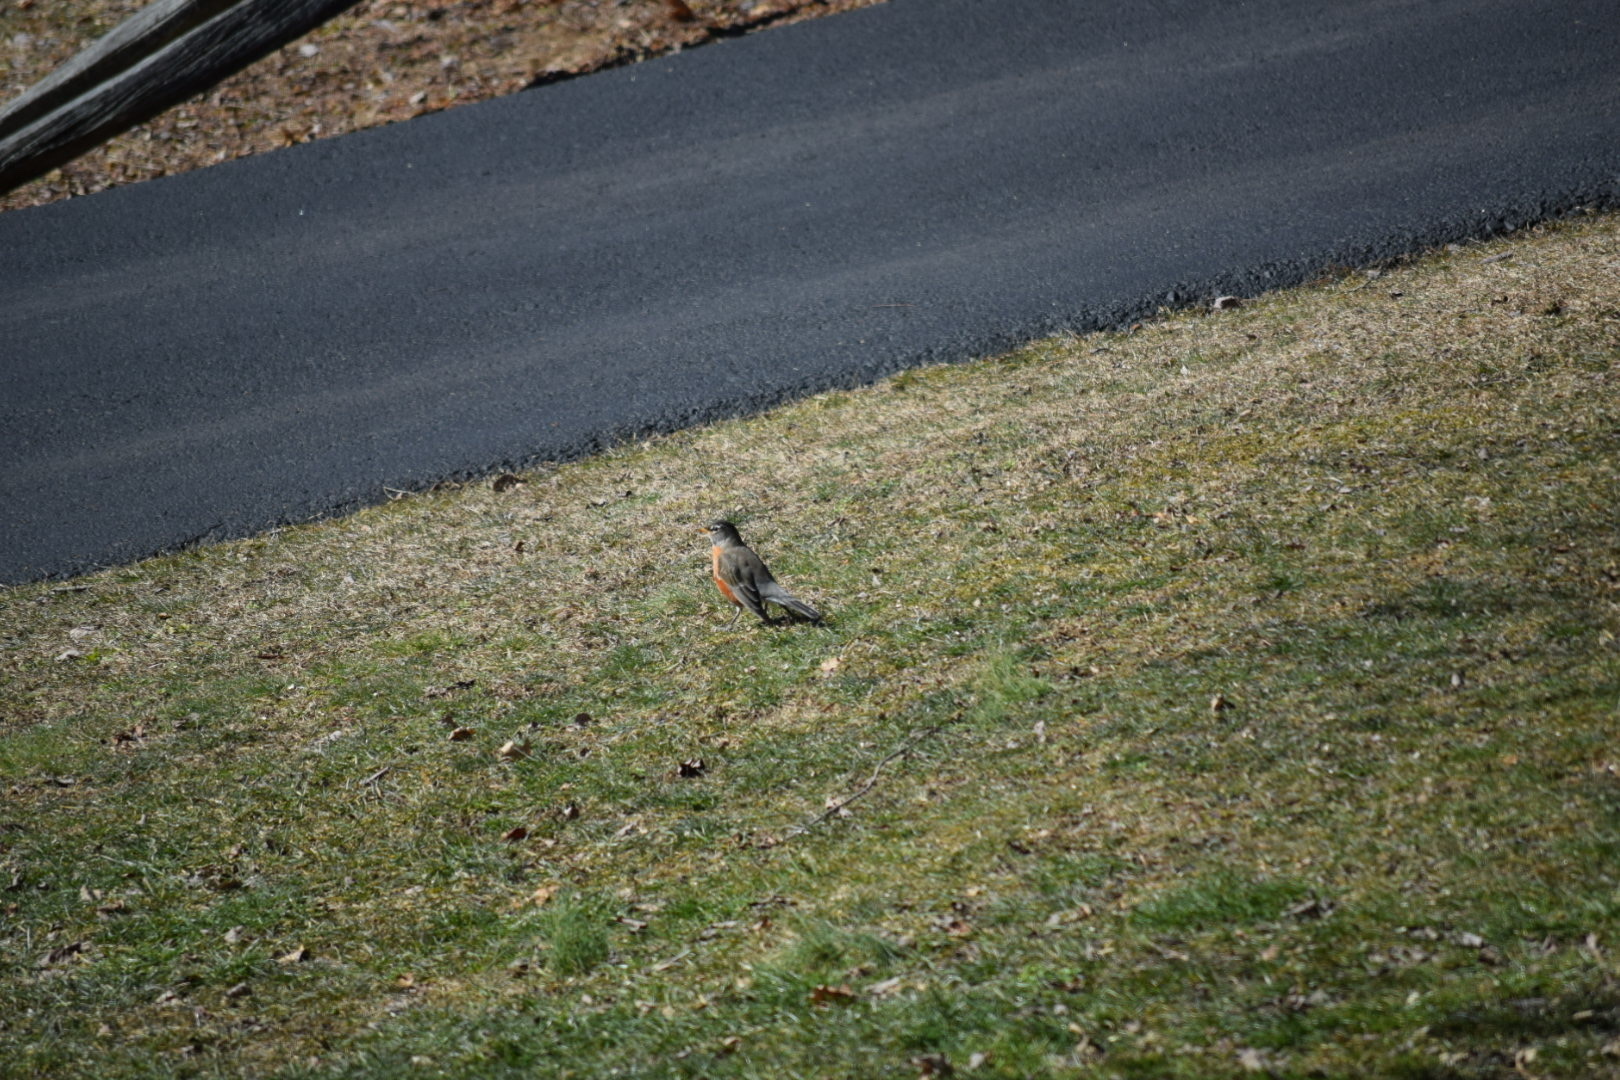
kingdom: Animalia
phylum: Chordata
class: Aves
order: Passeriformes
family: Turdidae
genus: Turdus
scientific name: Turdus migratorius
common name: American robin
